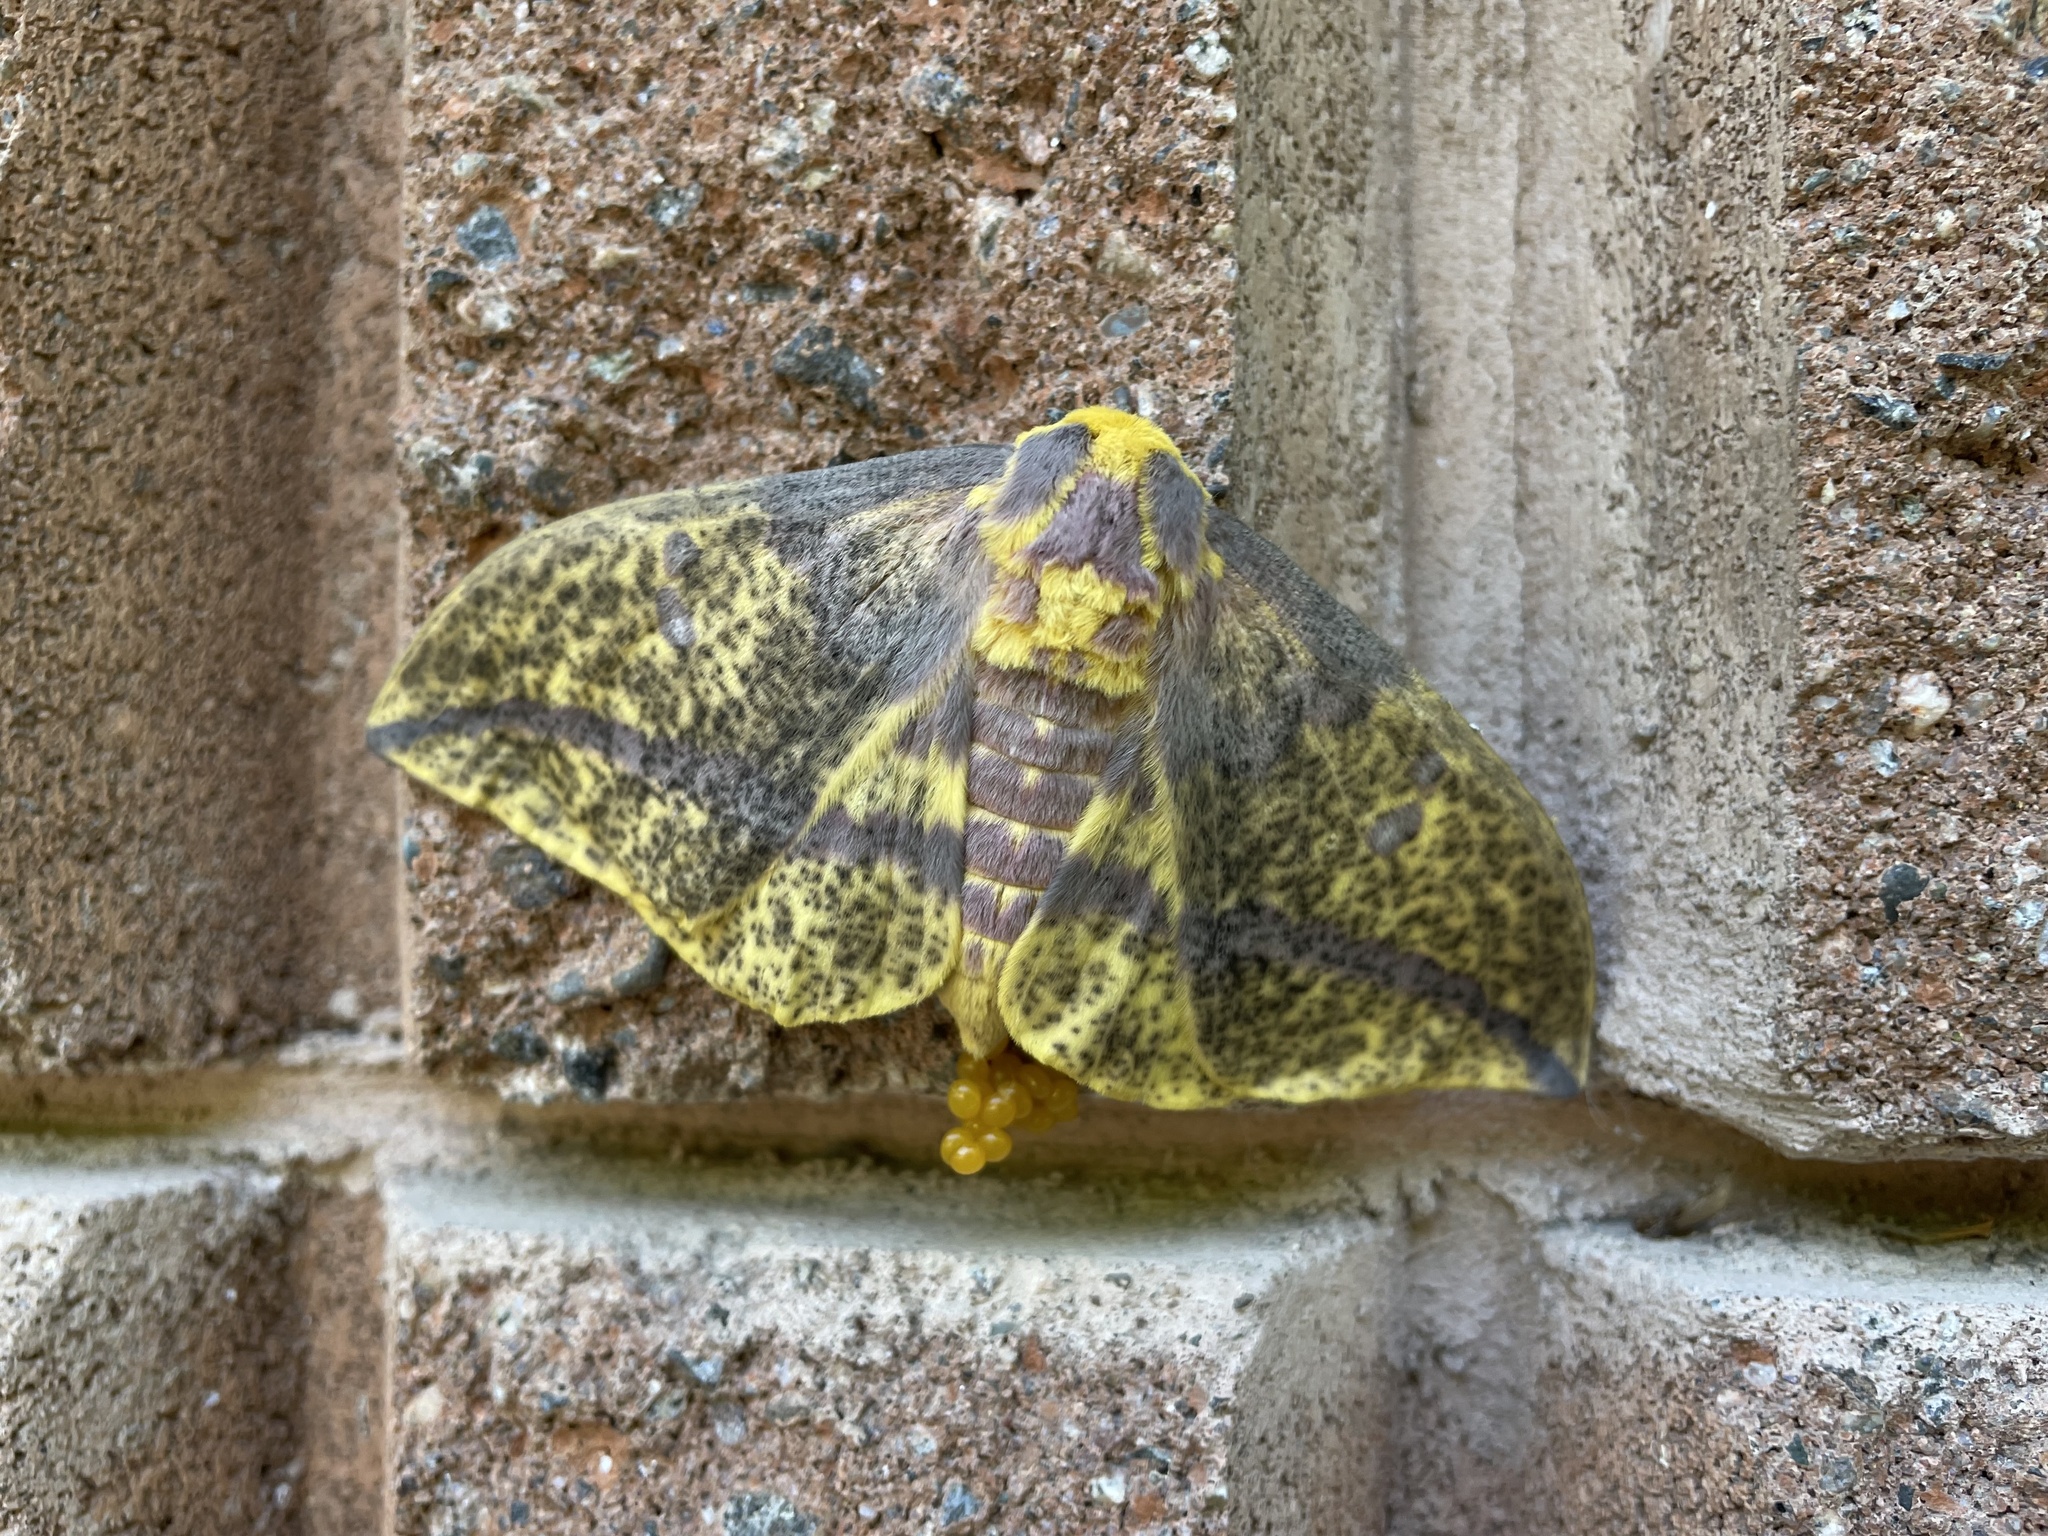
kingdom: Animalia
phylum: Arthropoda
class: Insecta
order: Lepidoptera
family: Saturniidae
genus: Eacles
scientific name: Eacles
